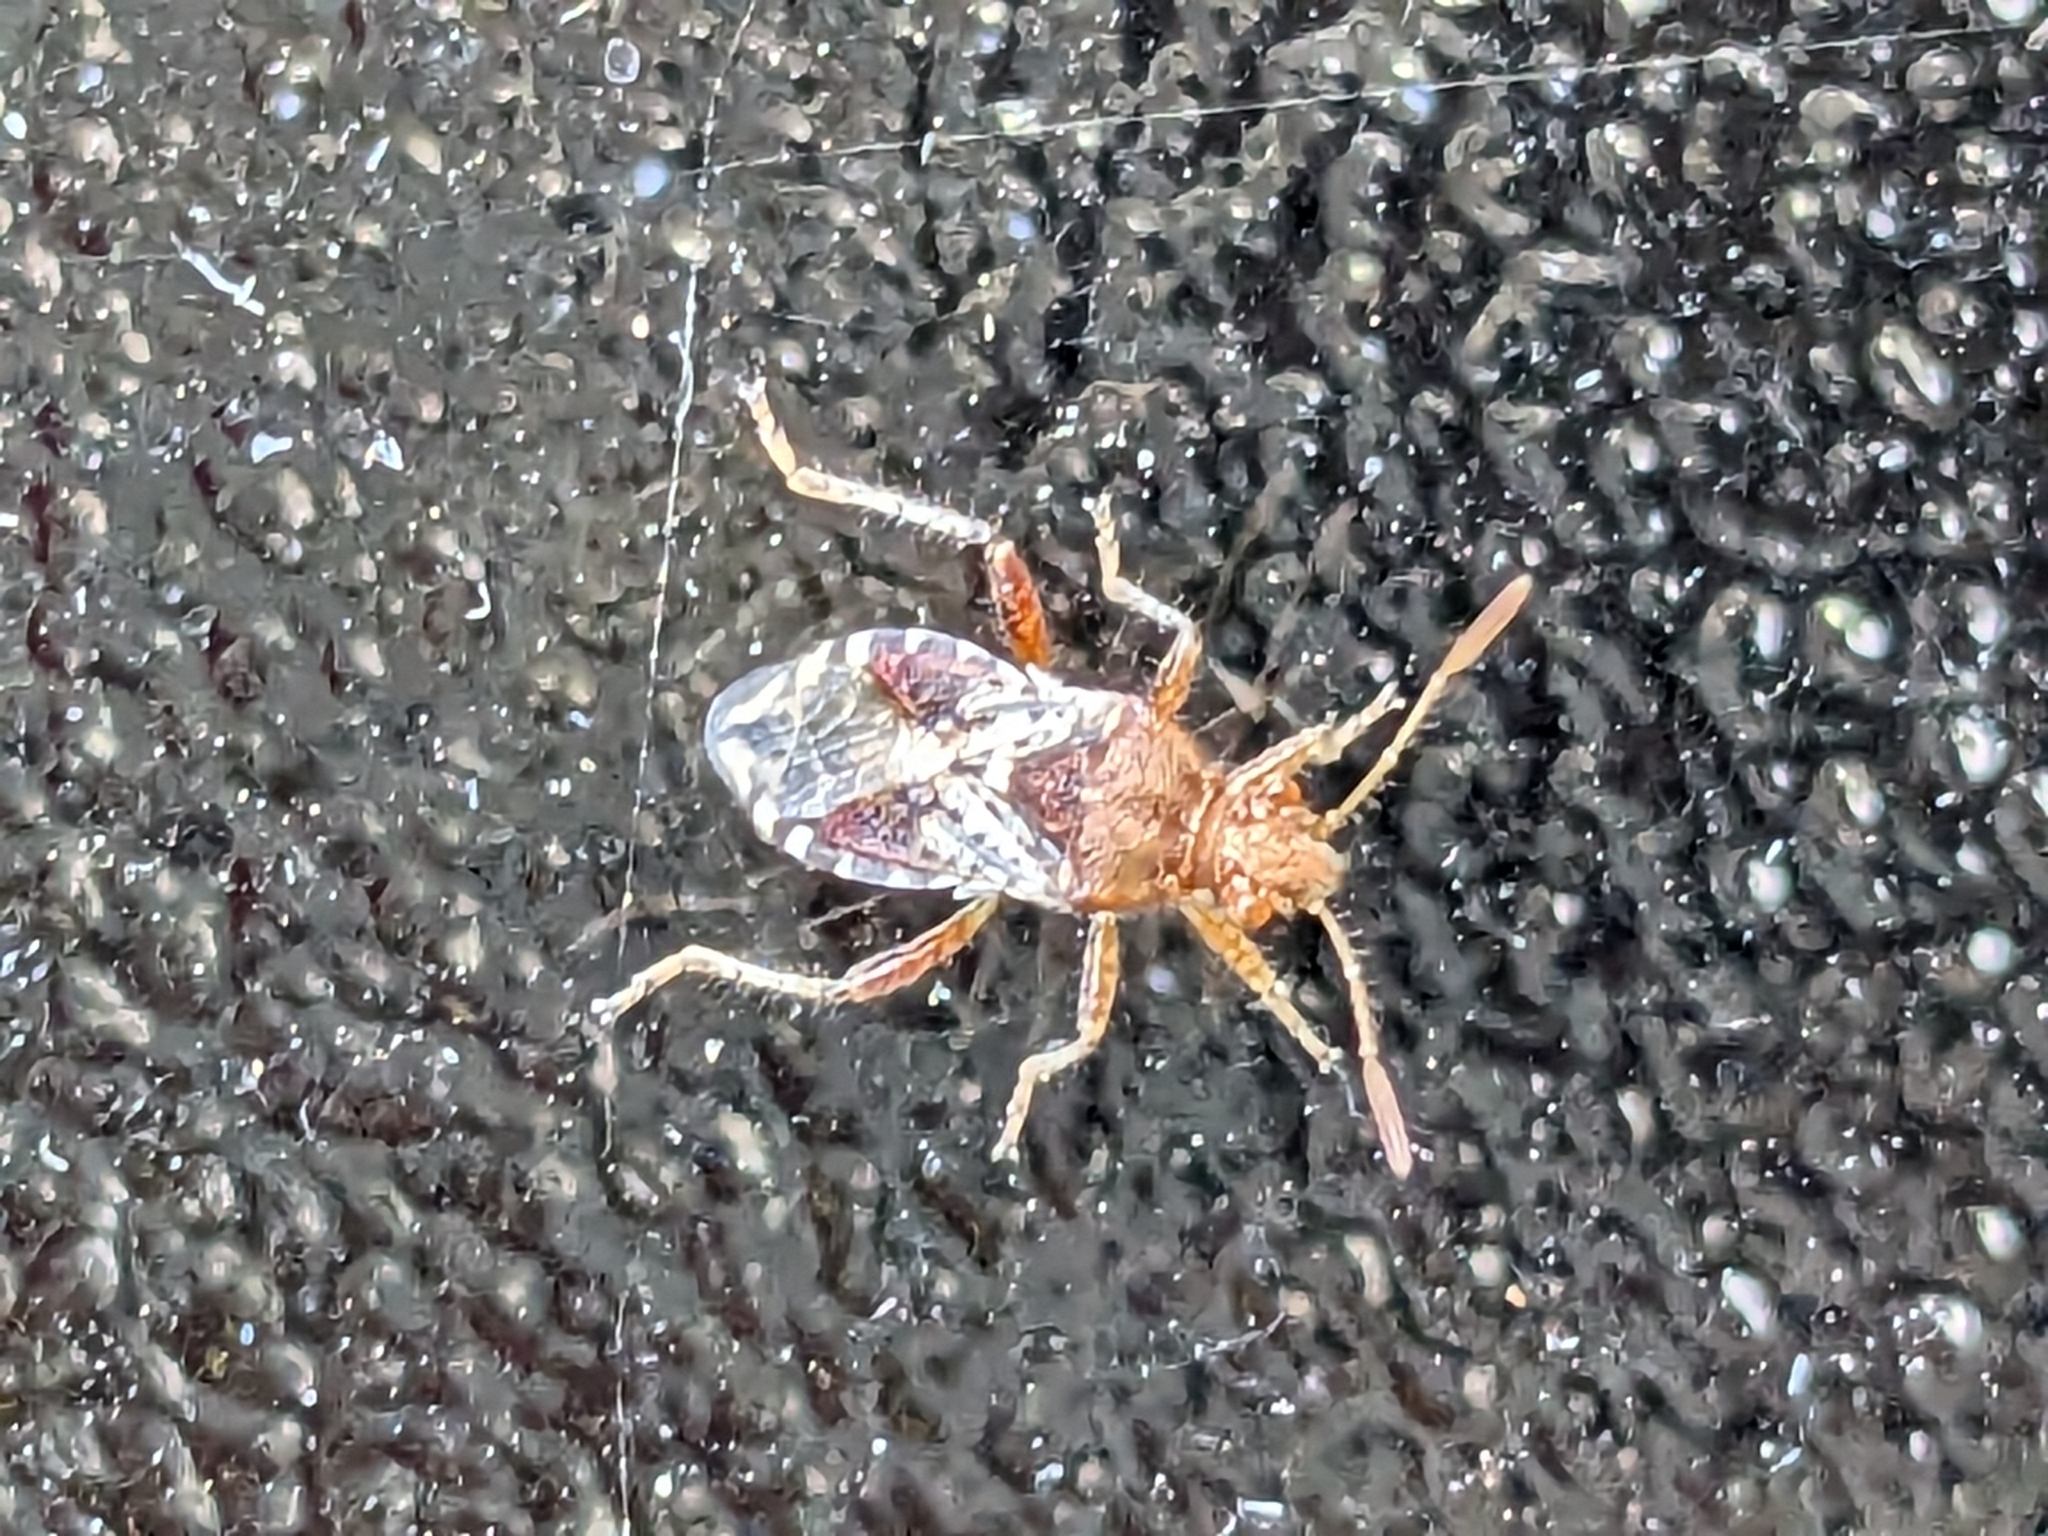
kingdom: Animalia
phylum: Arthropoda
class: Insecta
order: Hemiptera
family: Rhopalidae
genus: Rhopalus
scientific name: Rhopalus subrufus
